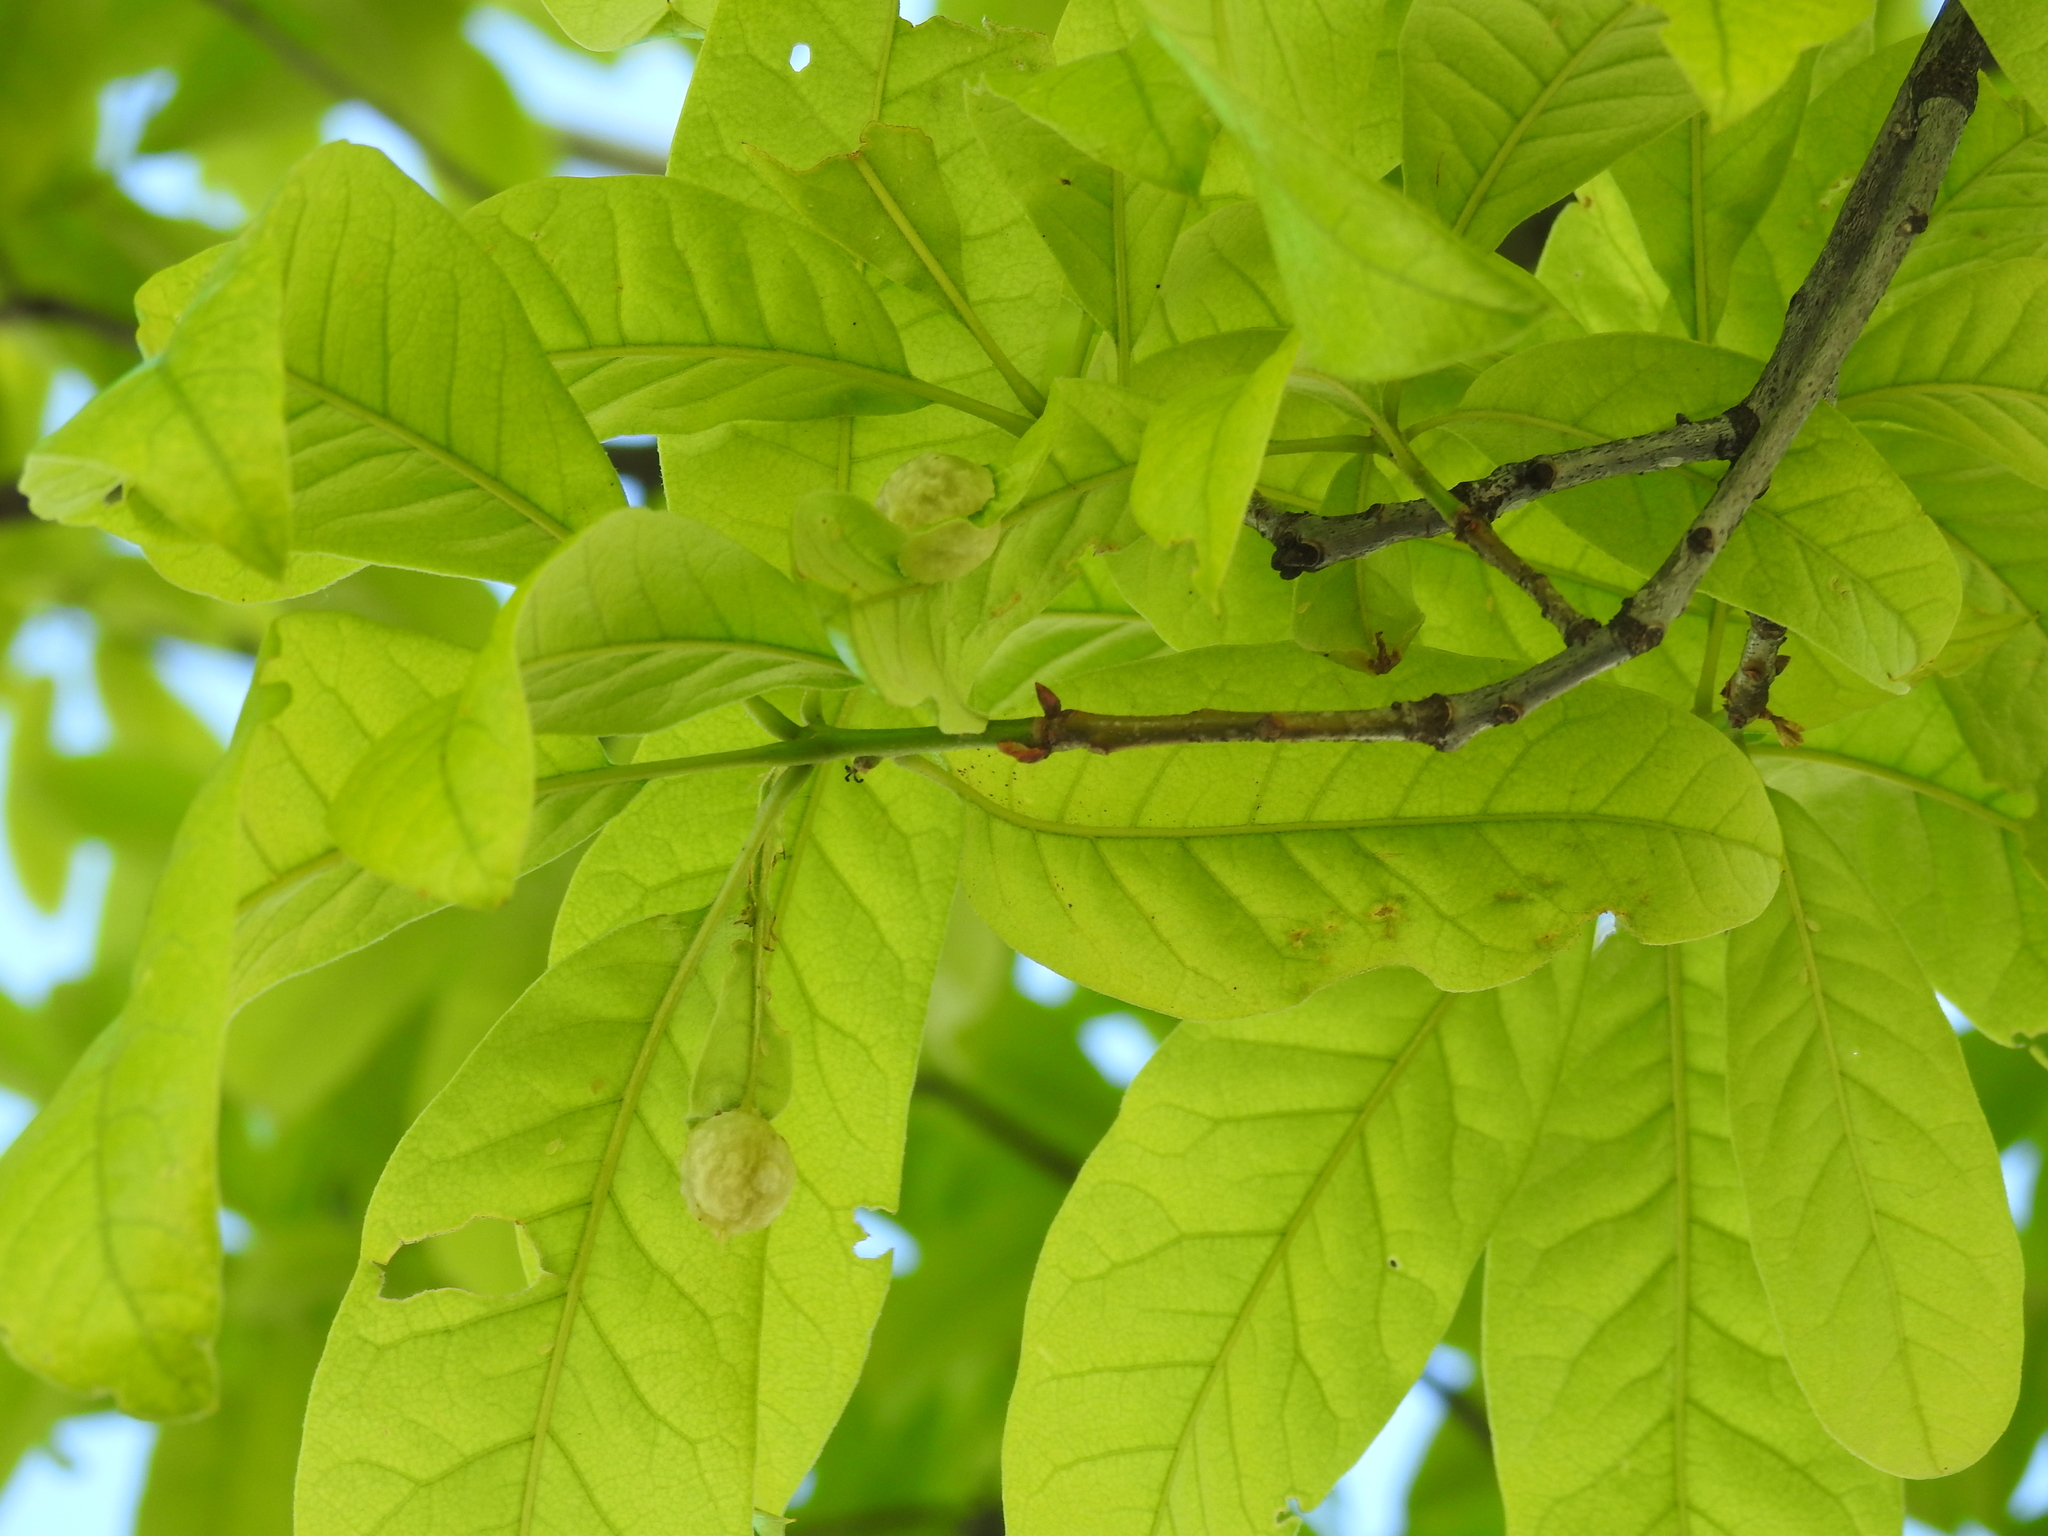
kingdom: Animalia
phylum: Arthropoda
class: Insecta
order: Hymenoptera
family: Cynipidae
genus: Dryocosmus
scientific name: Dryocosmus quercuspalustris
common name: Succulent oak gall wasp
